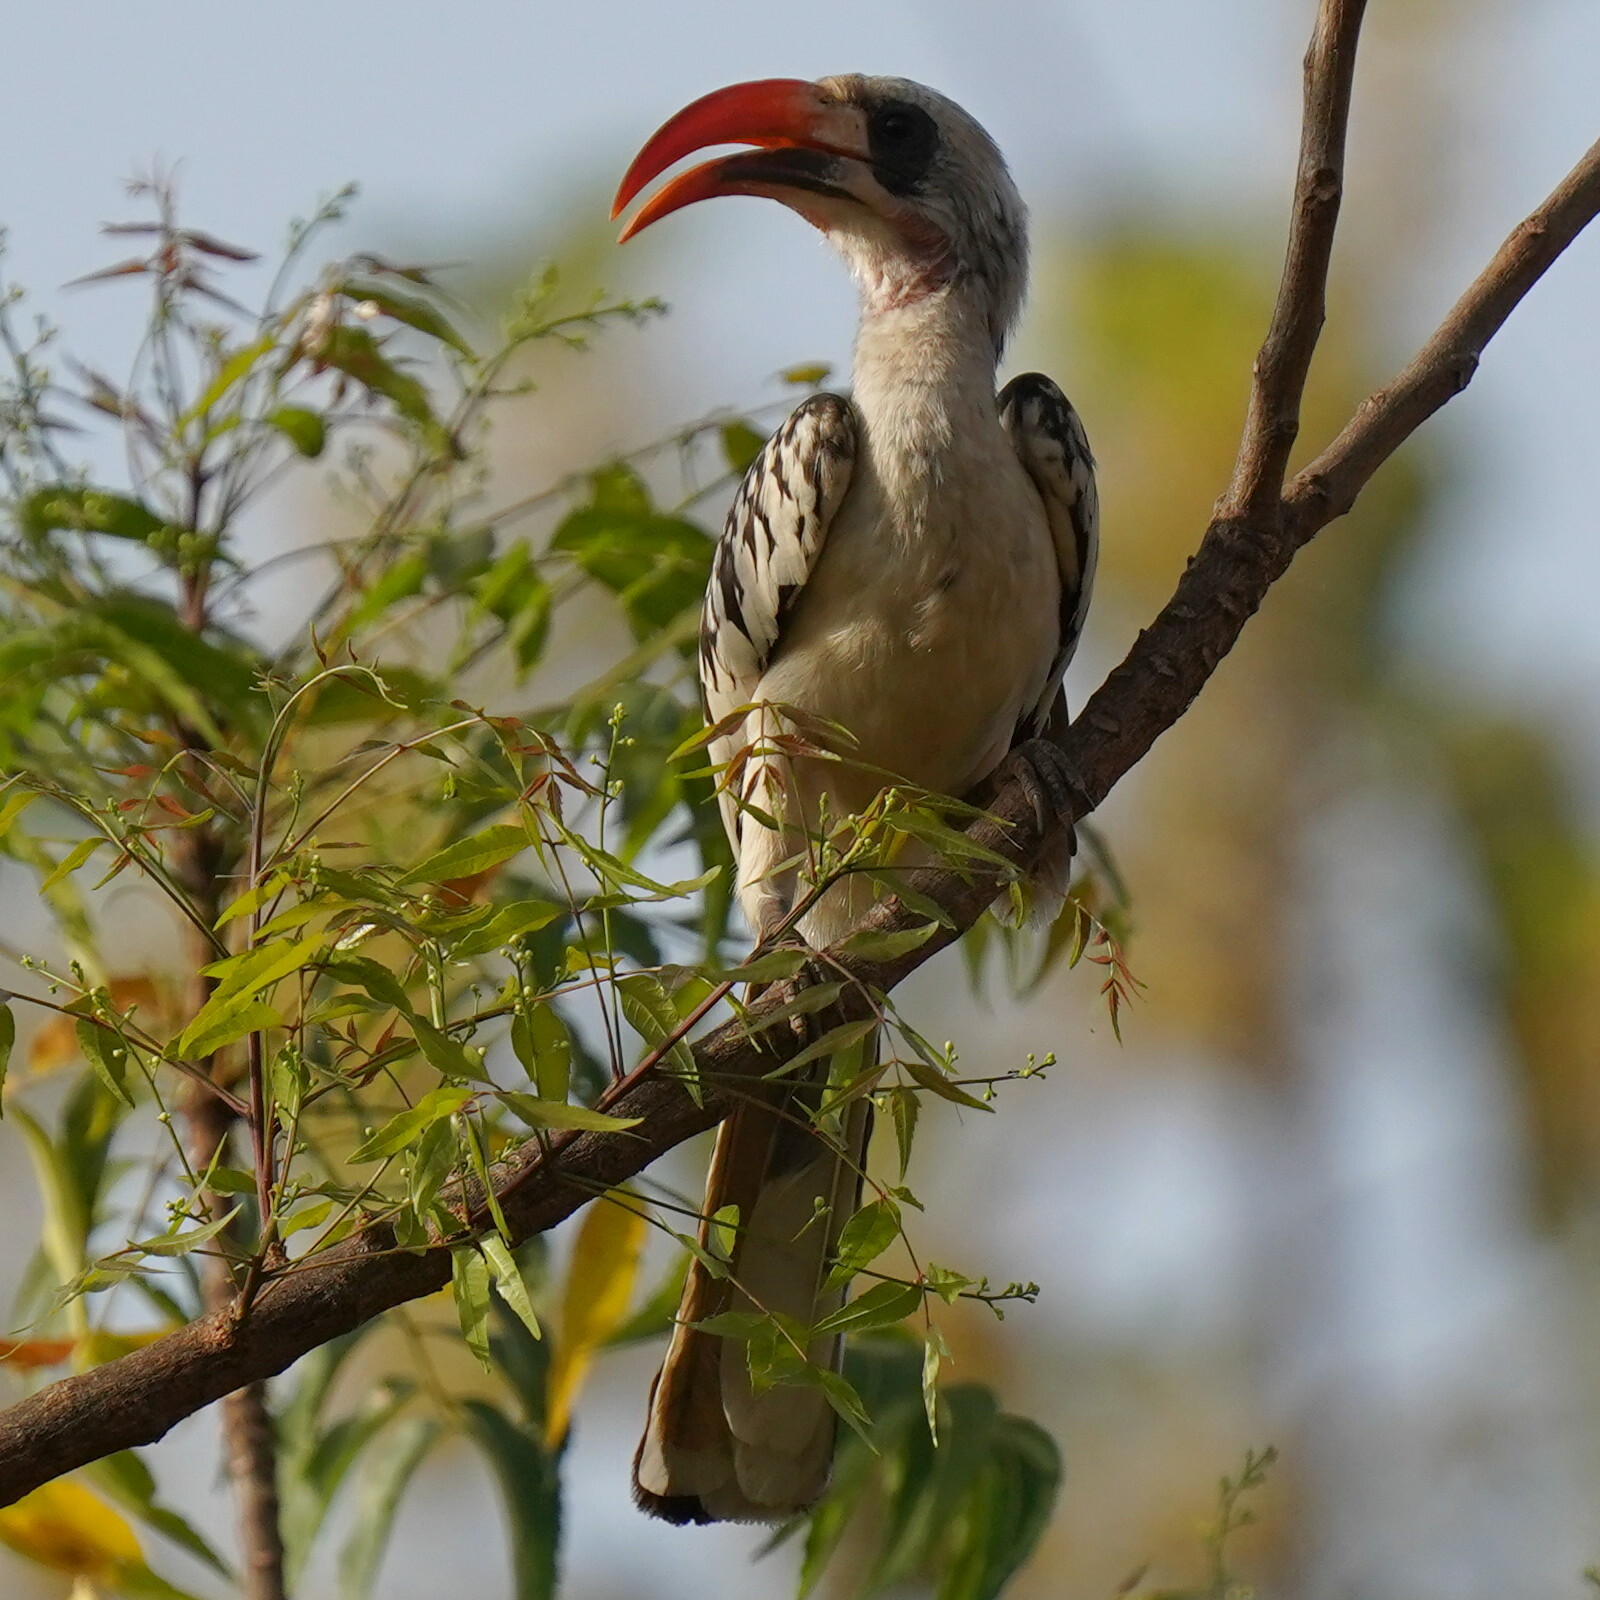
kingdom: Animalia
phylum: Chordata
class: Aves
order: Bucerotiformes
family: Bucerotidae
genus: Tockus
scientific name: Tockus kempi
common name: Western red-billed hornbill
